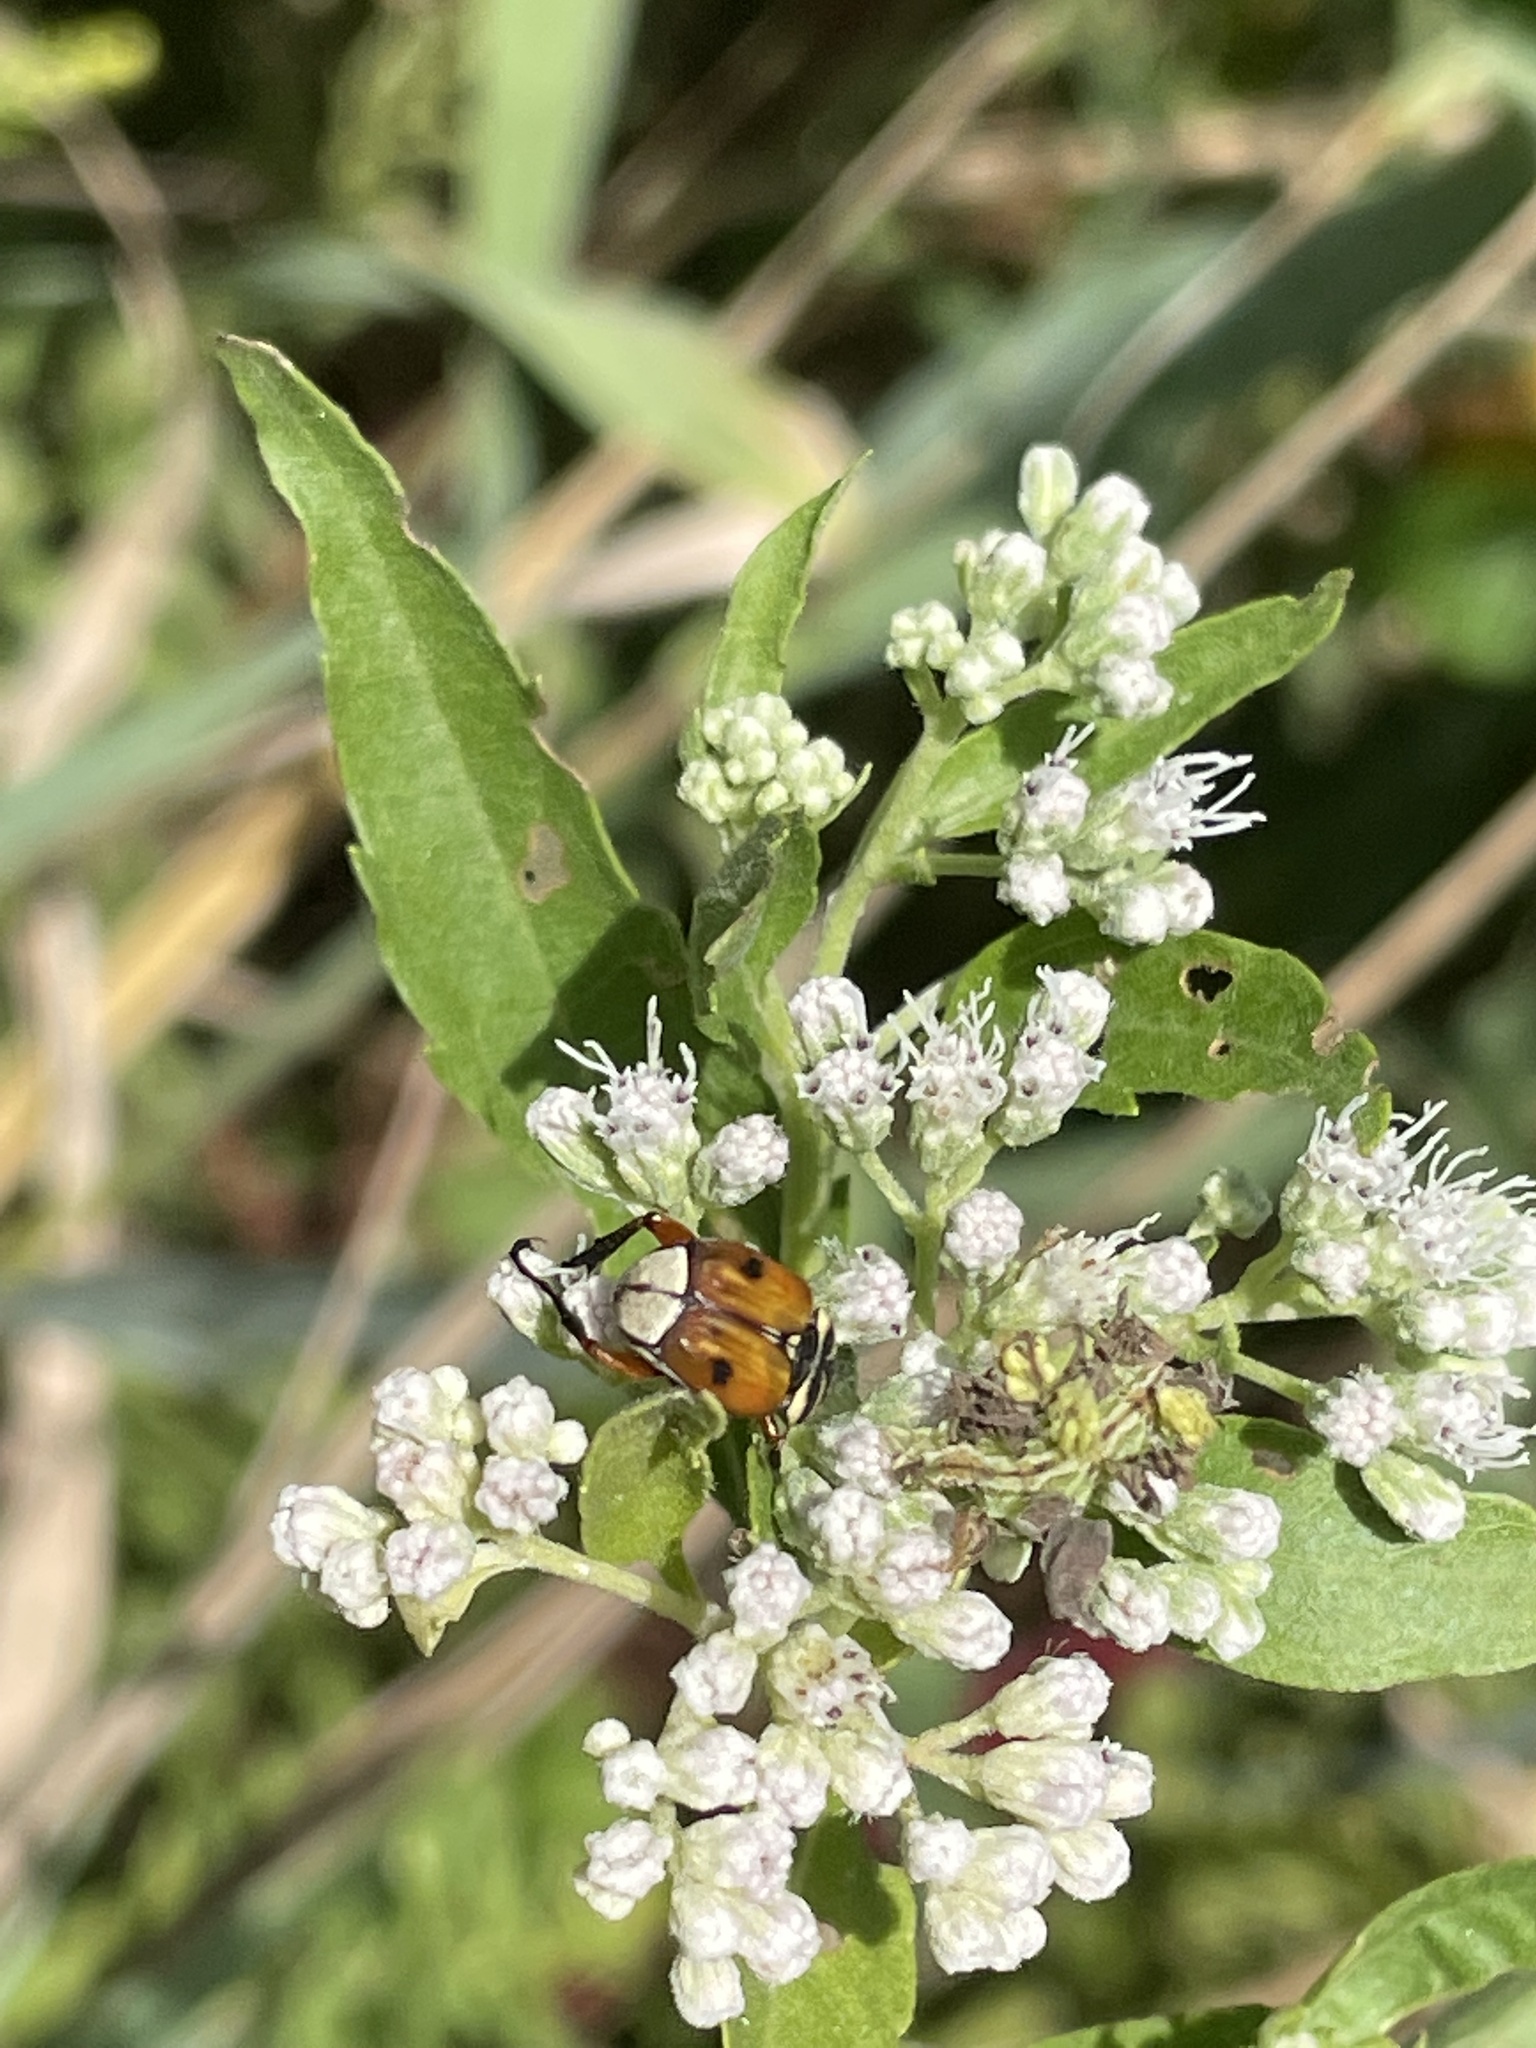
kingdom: Animalia
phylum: Arthropoda
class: Insecta
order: Coleoptera
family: Scarabaeidae
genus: Trigonopeltastes
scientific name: Trigonopeltastes delta
